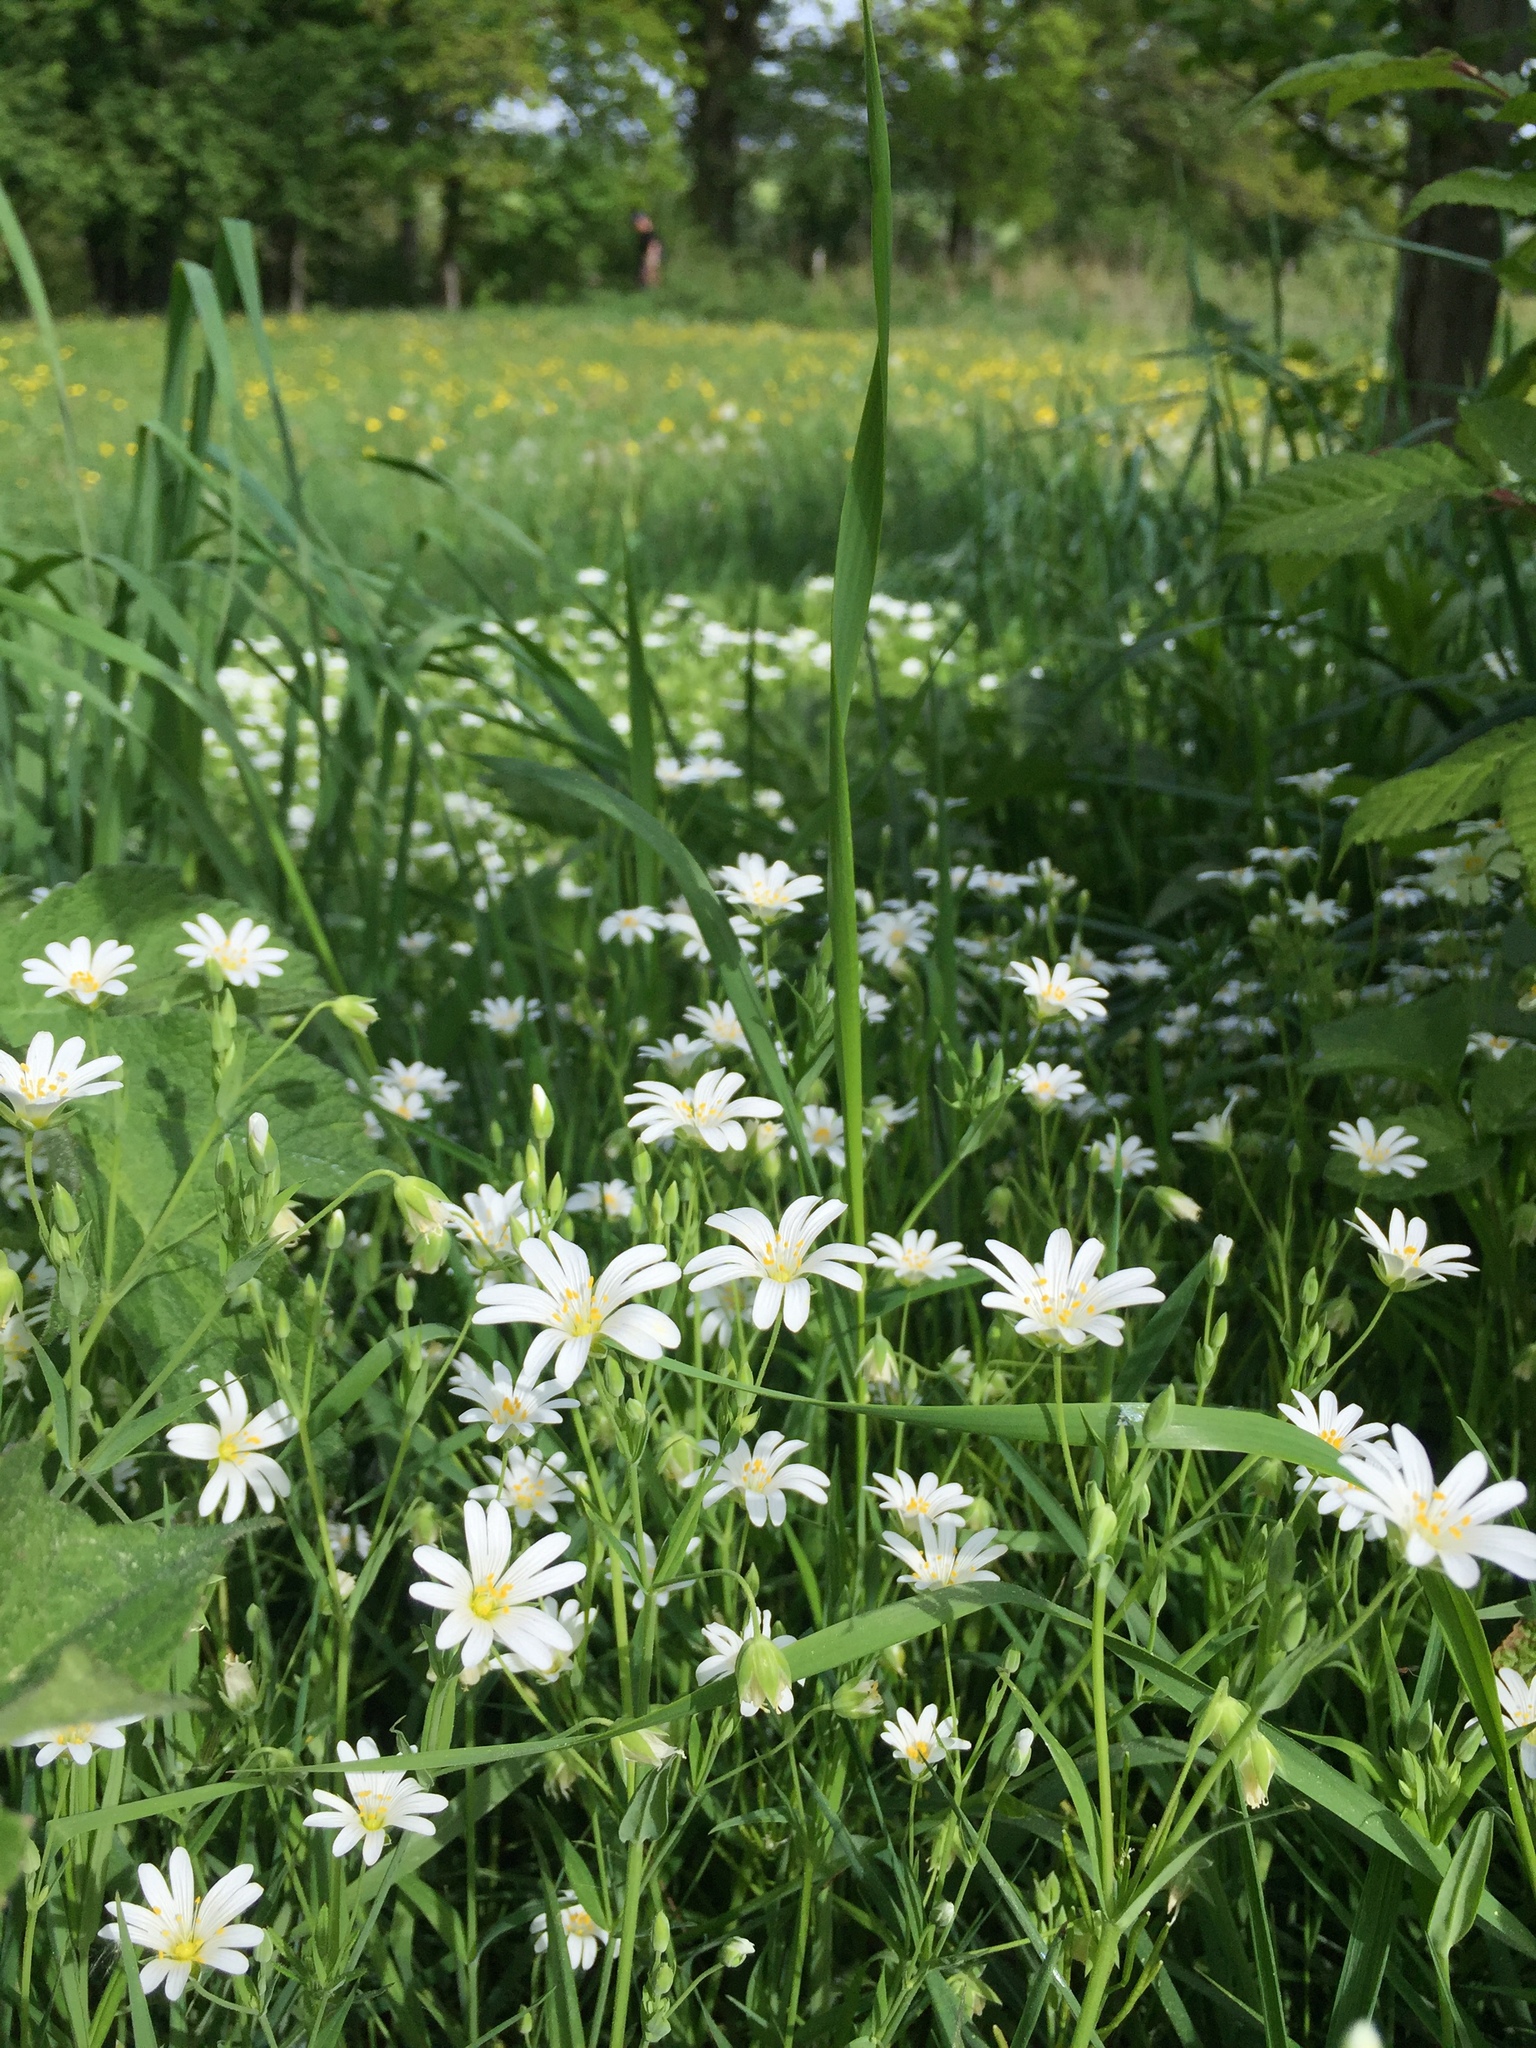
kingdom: Plantae
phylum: Tracheophyta
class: Magnoliopsida
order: Caryophyllales
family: Caryophyllaceae
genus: Rabelera
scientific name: Rabelera holostea
